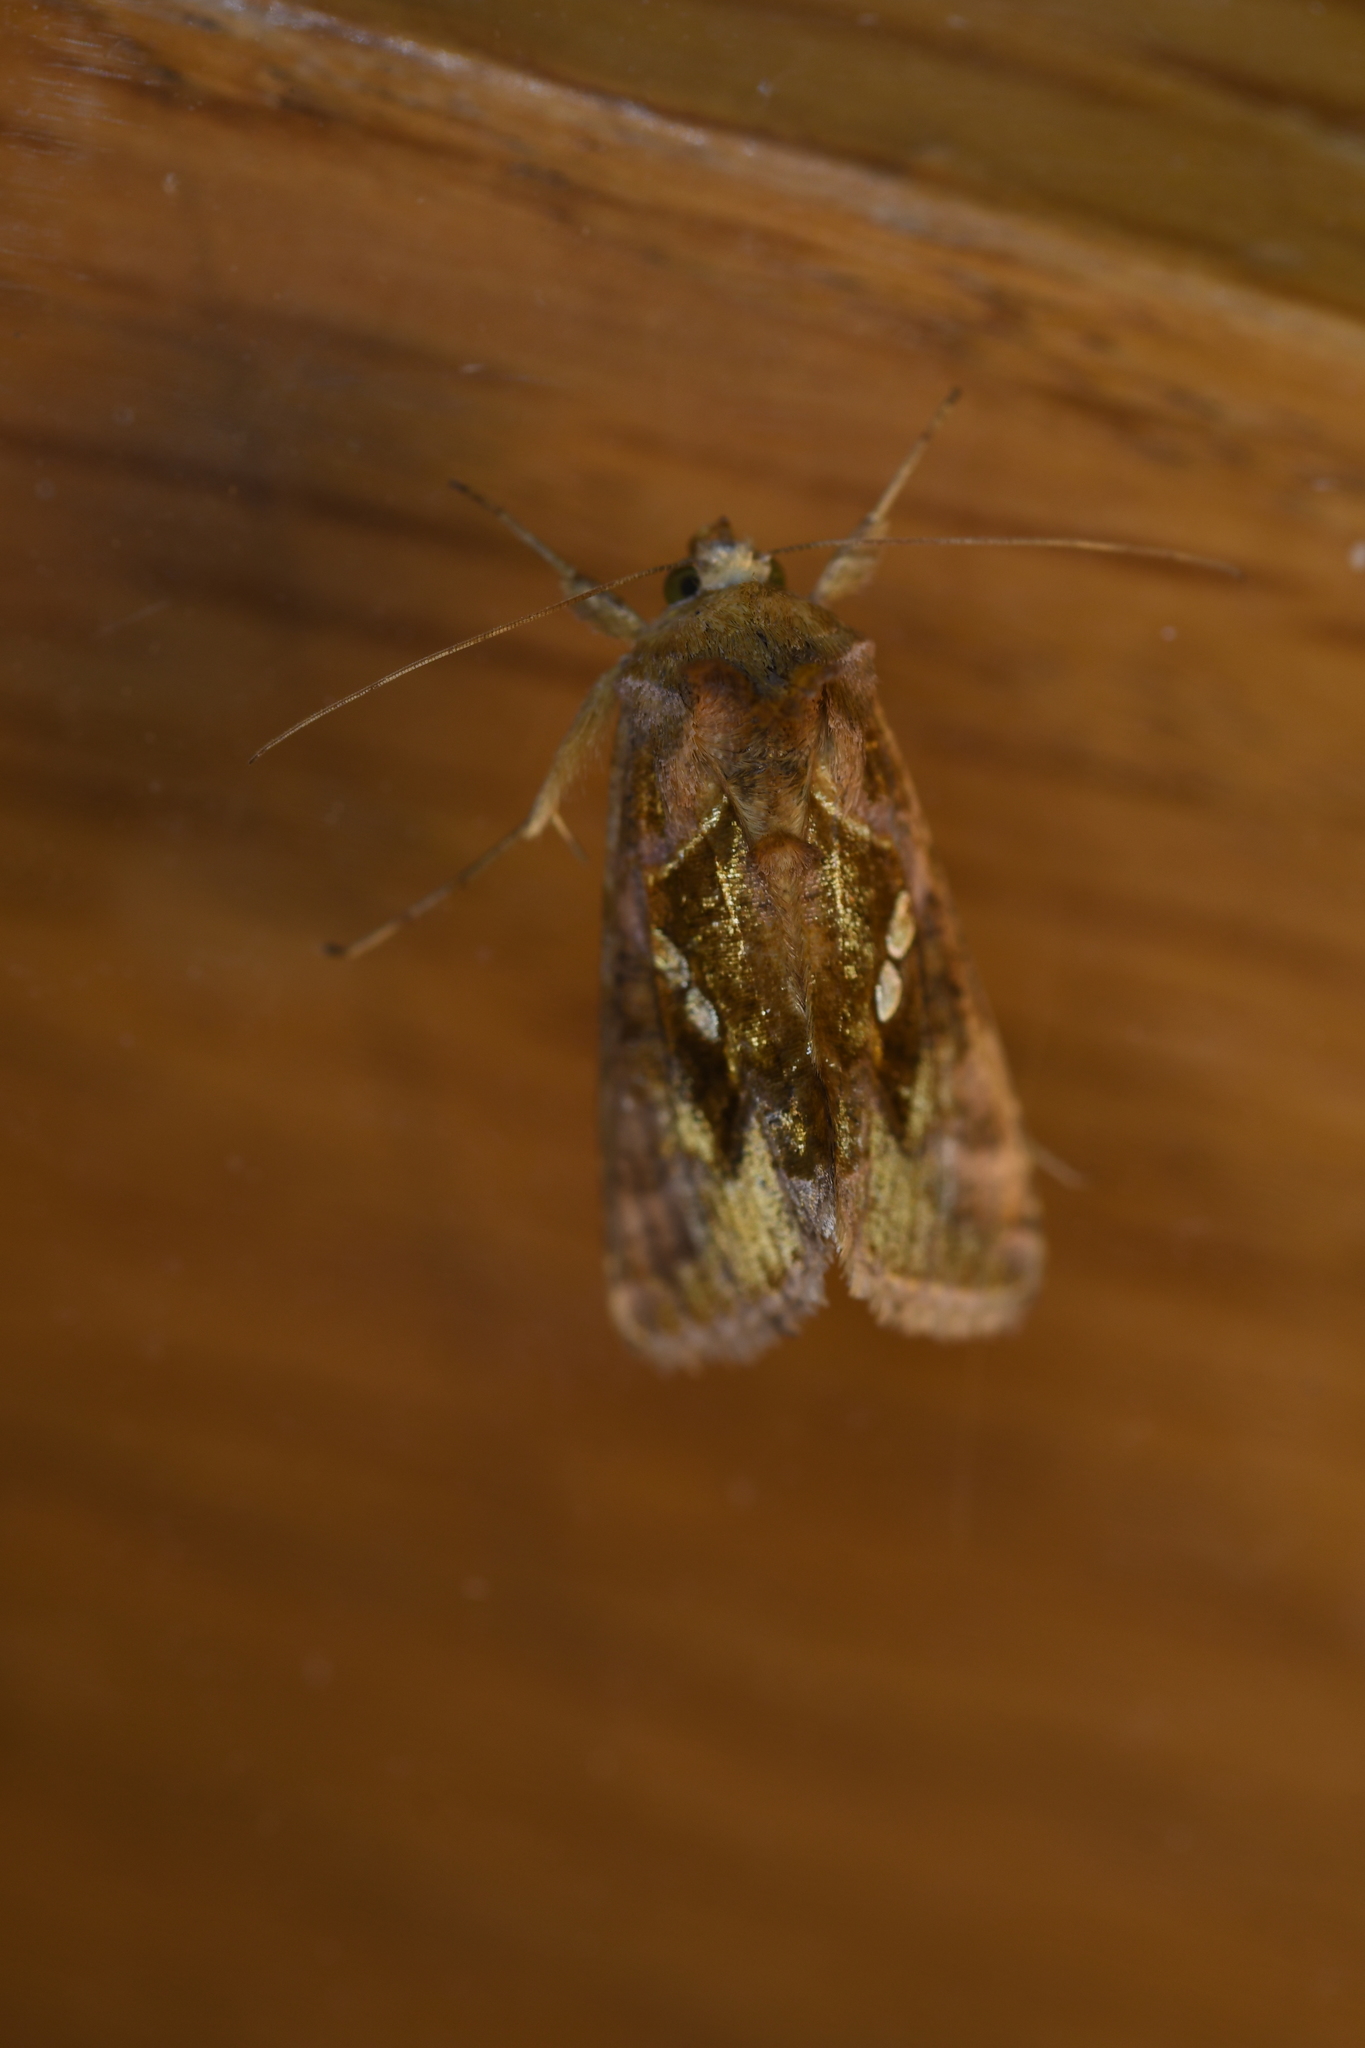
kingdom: Animalia
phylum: Arthropoda
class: Insecta
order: Lepidoptera
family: Noctuidae
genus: Chrysodeixis
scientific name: Chrysodeixis chalcites
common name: Golden twin-spot
